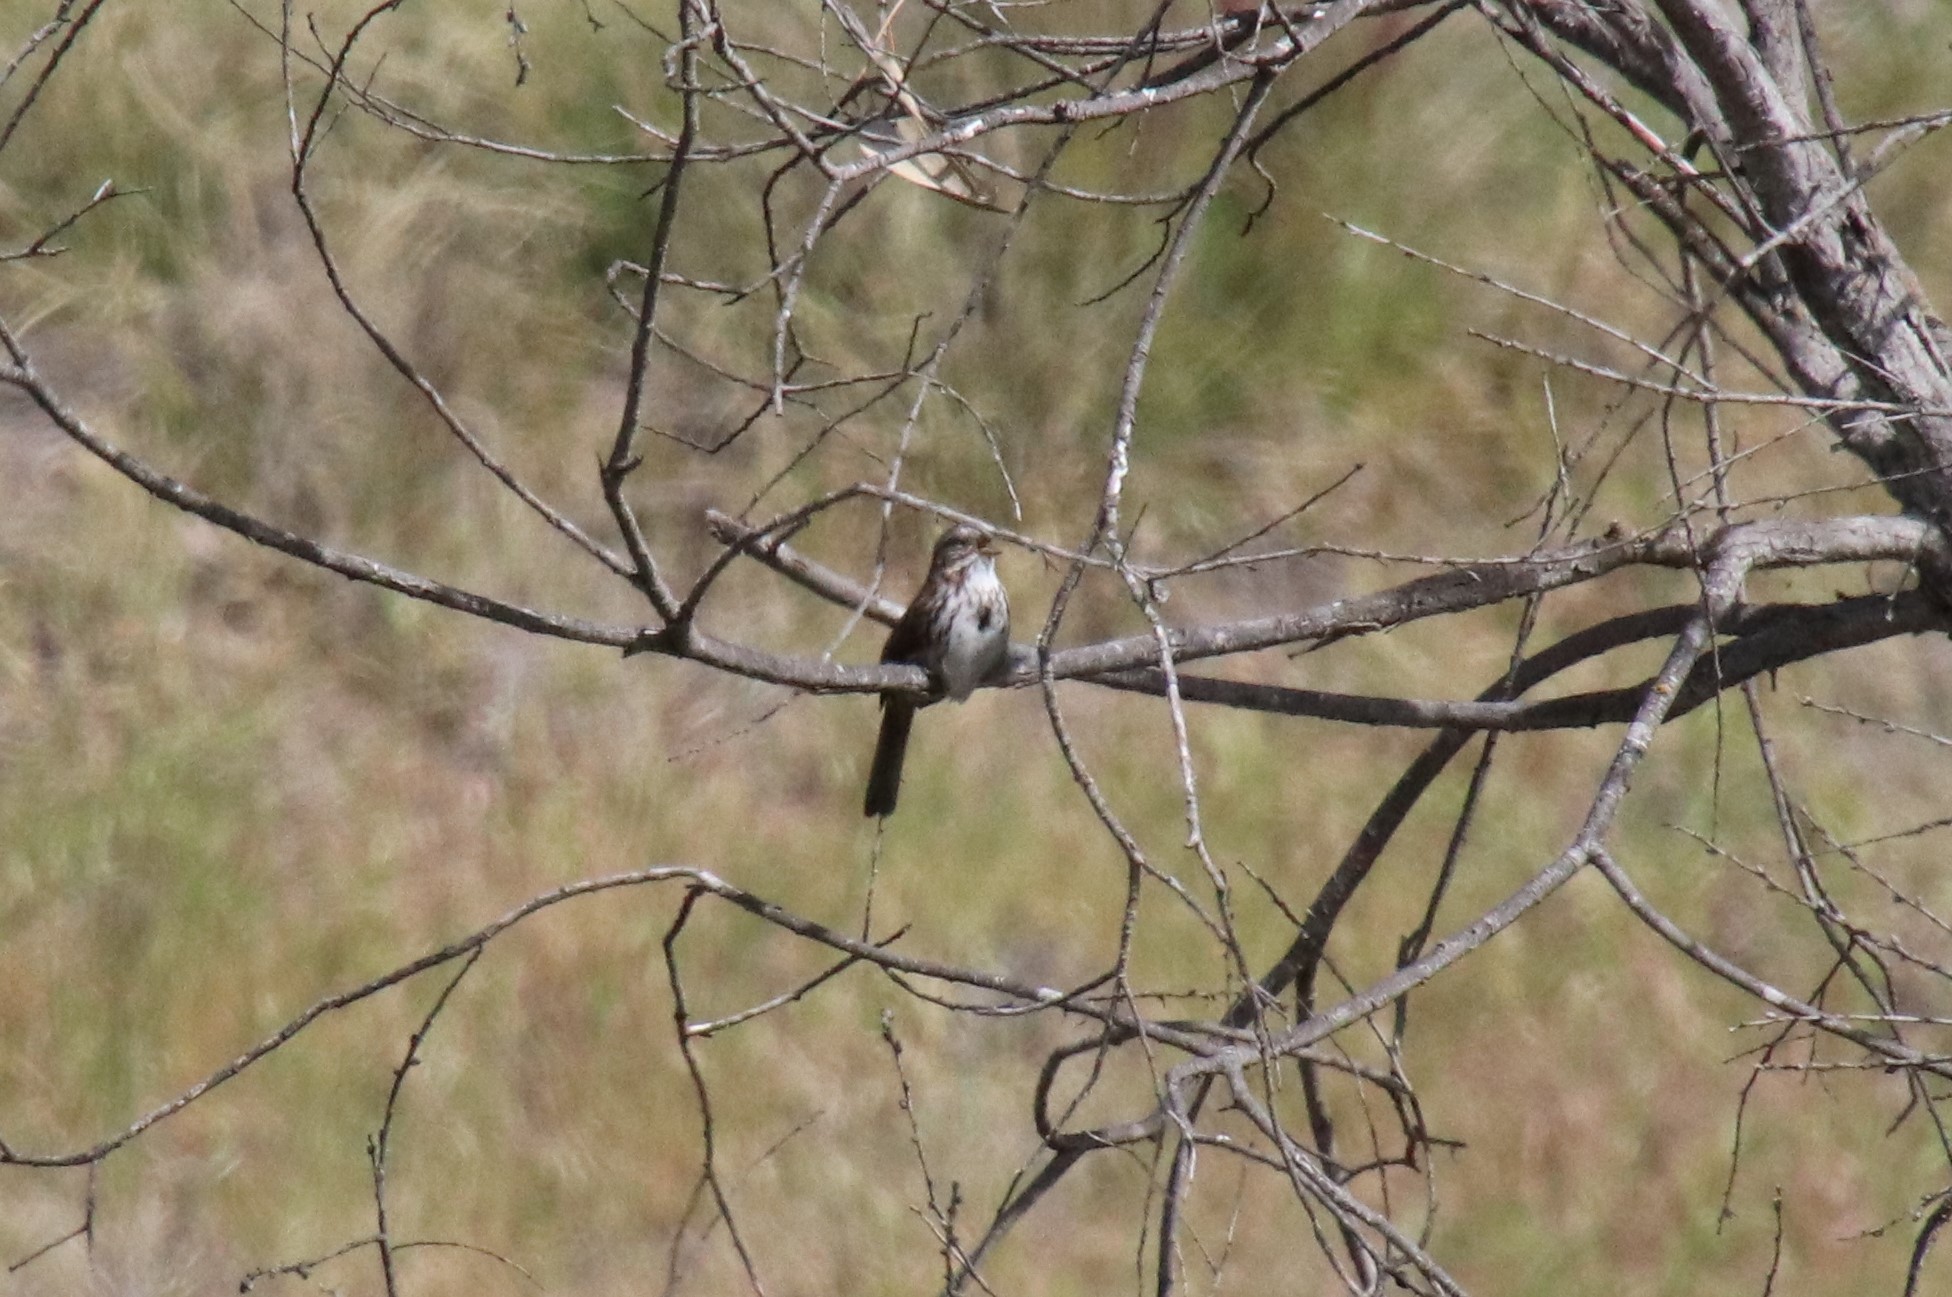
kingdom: Animalia
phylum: Chordata
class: Aves
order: Passeriformes
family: Passerellidae
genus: Melospiza
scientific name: Melospiza melodia
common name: Song sparrow
